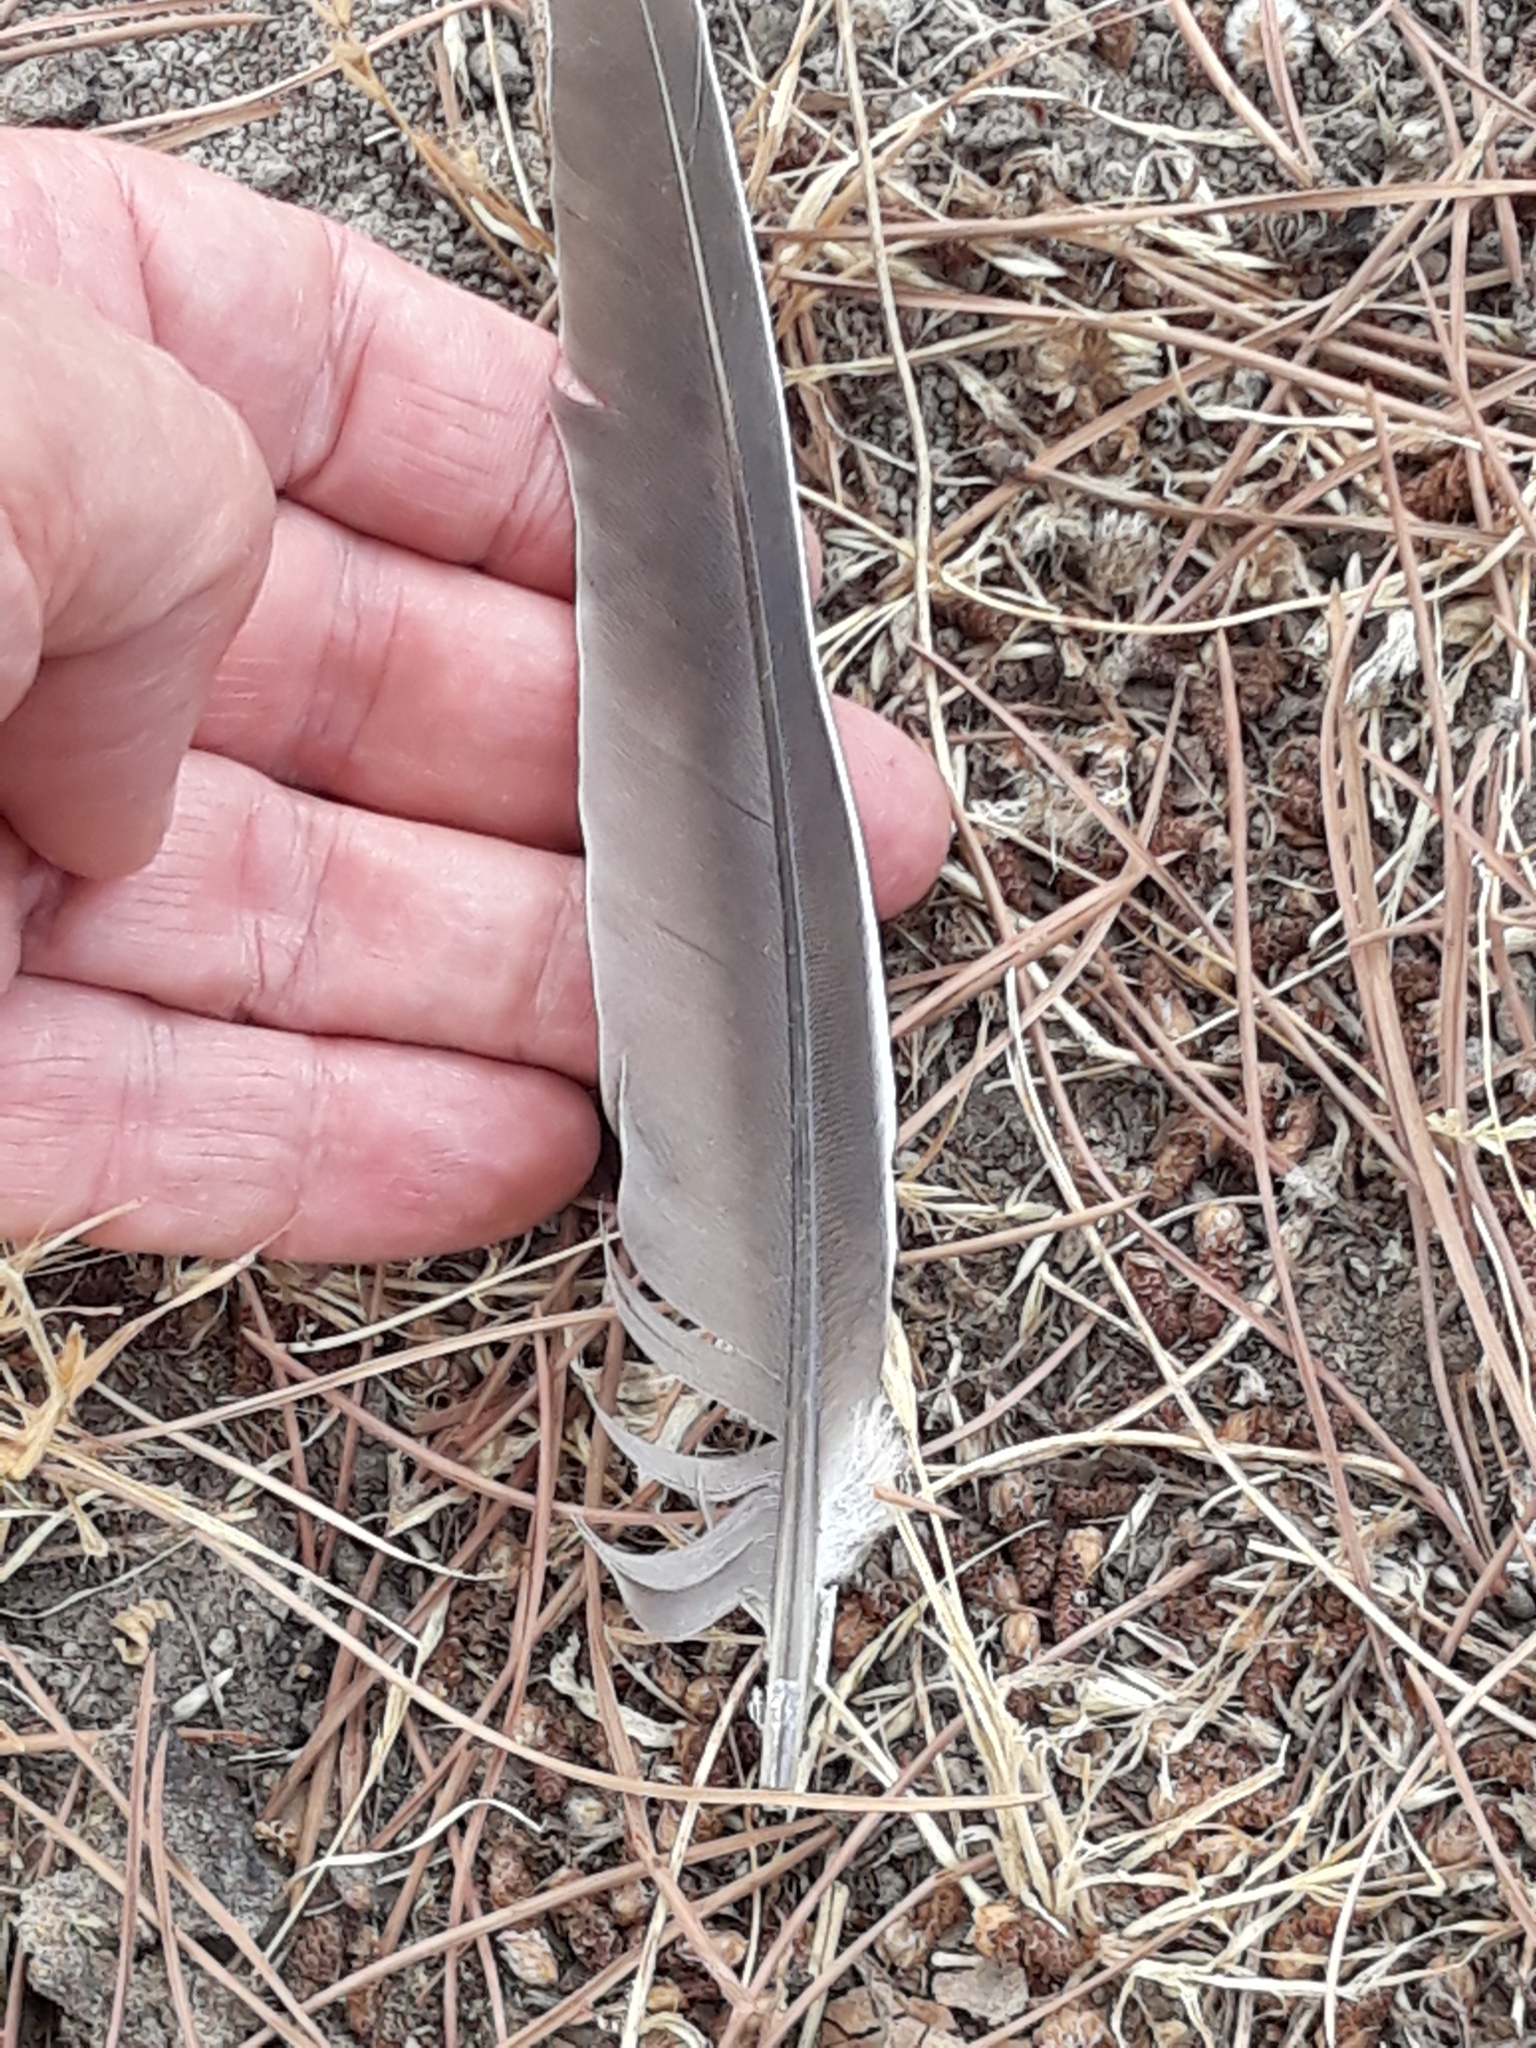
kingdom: Animalia
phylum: Chordata
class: Aves
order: Columbiformes
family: Columbidae
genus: Columba
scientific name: Columba palumbus
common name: Common wood pigeon
